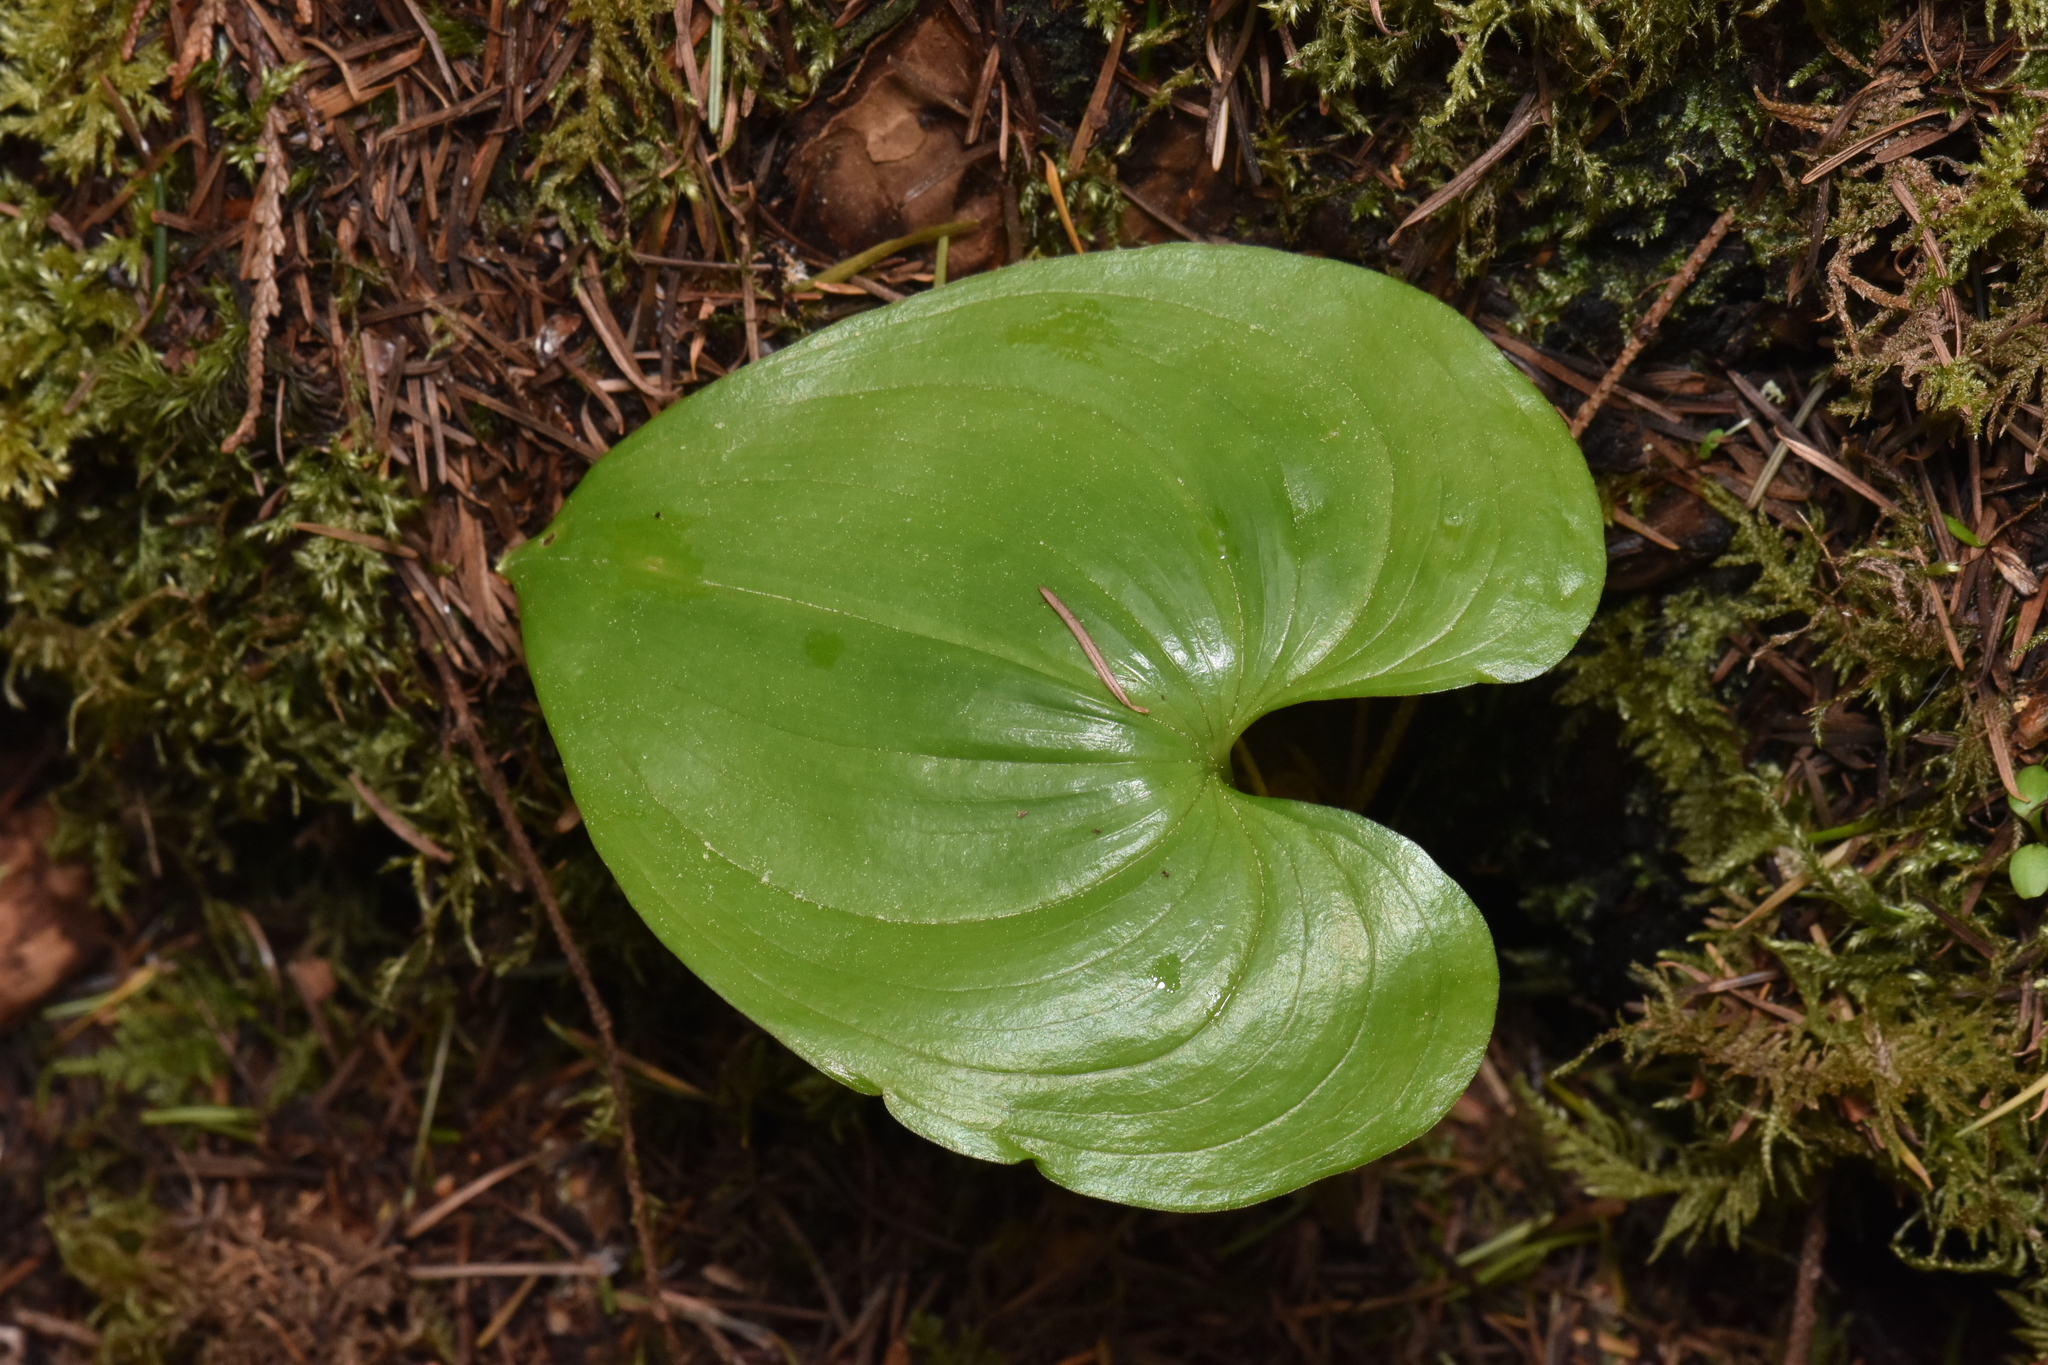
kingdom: Plantae
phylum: Tracheophyta
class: Liliopsida
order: Asparagales
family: Asparagaceae
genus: Maianthemum
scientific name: Maianthemum dilatatum
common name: False lily-of-the-valley
